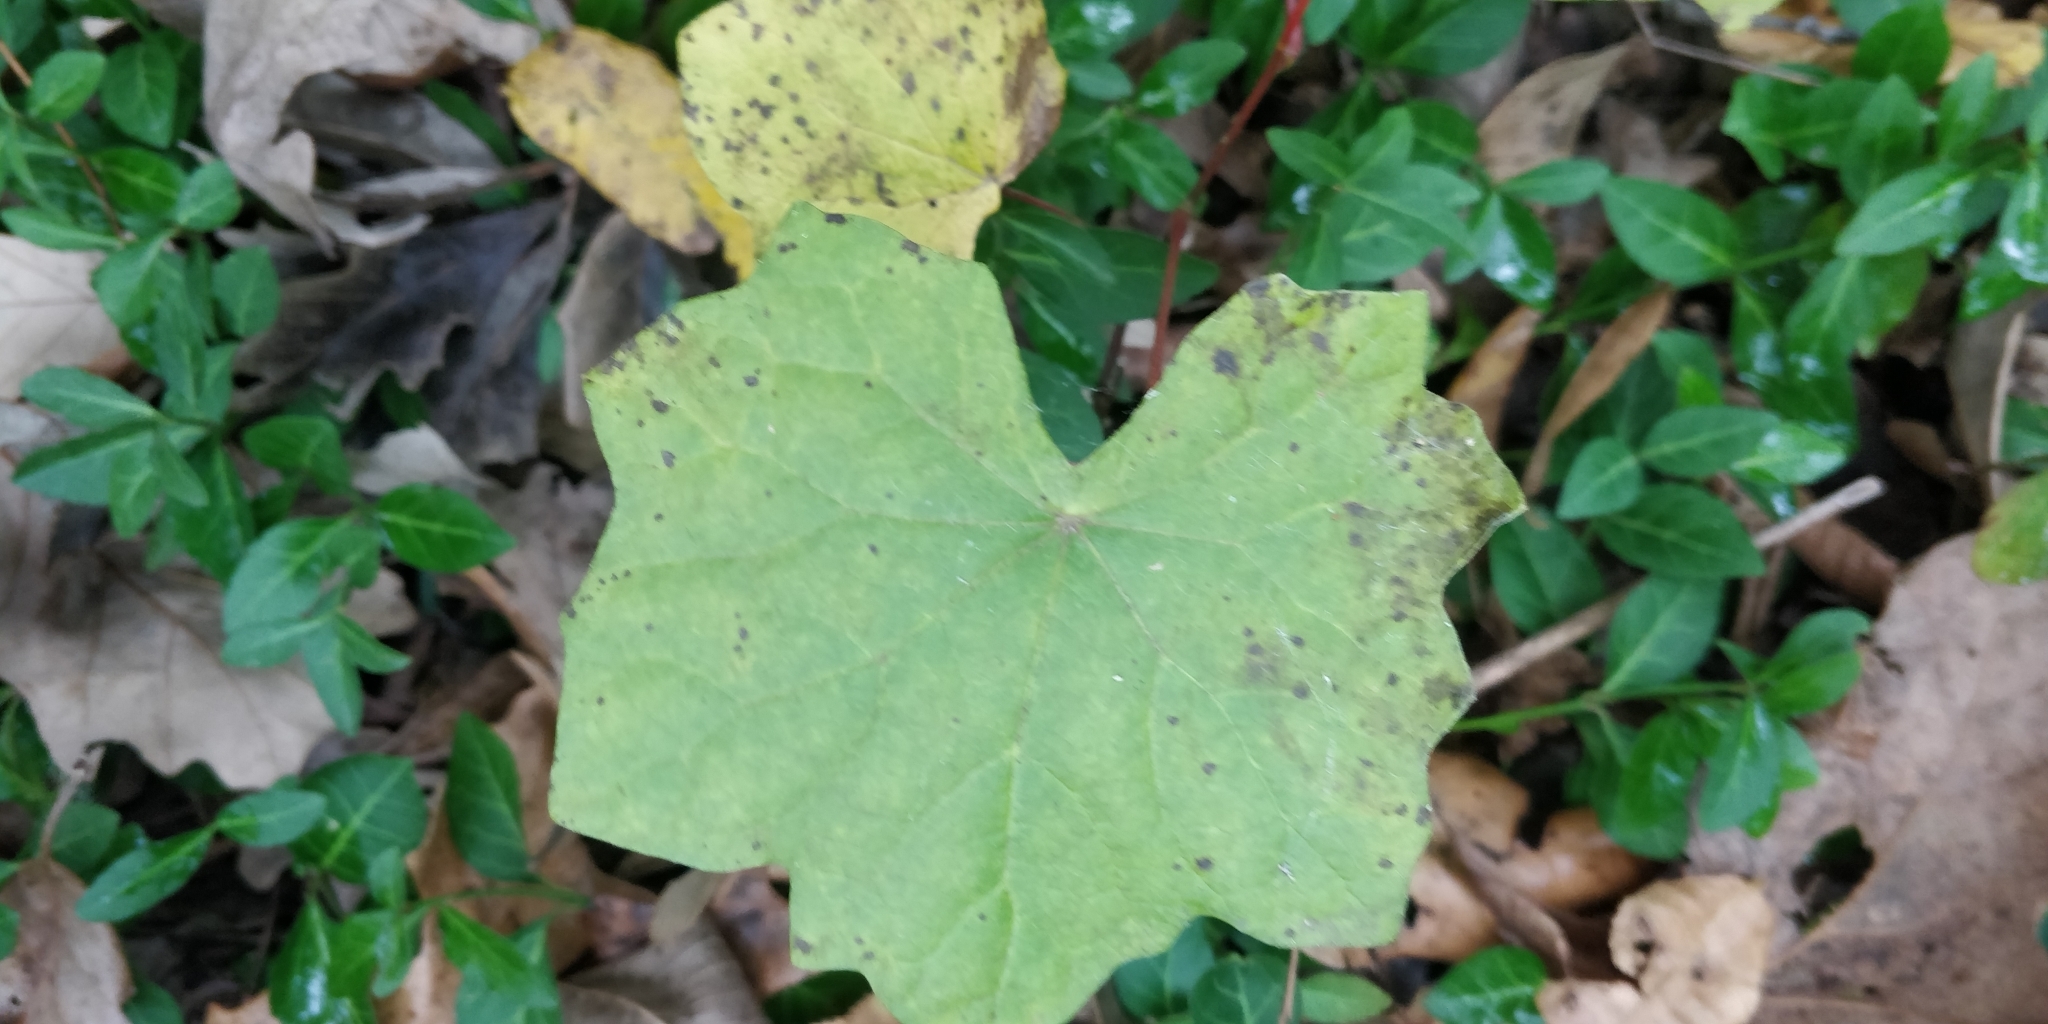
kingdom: Plantae
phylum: Tracheophyta
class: Magnoliopsida
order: Ranunculales
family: Menispermaceae
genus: Menispermum
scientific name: Menispermum canadense
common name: Moonseed
